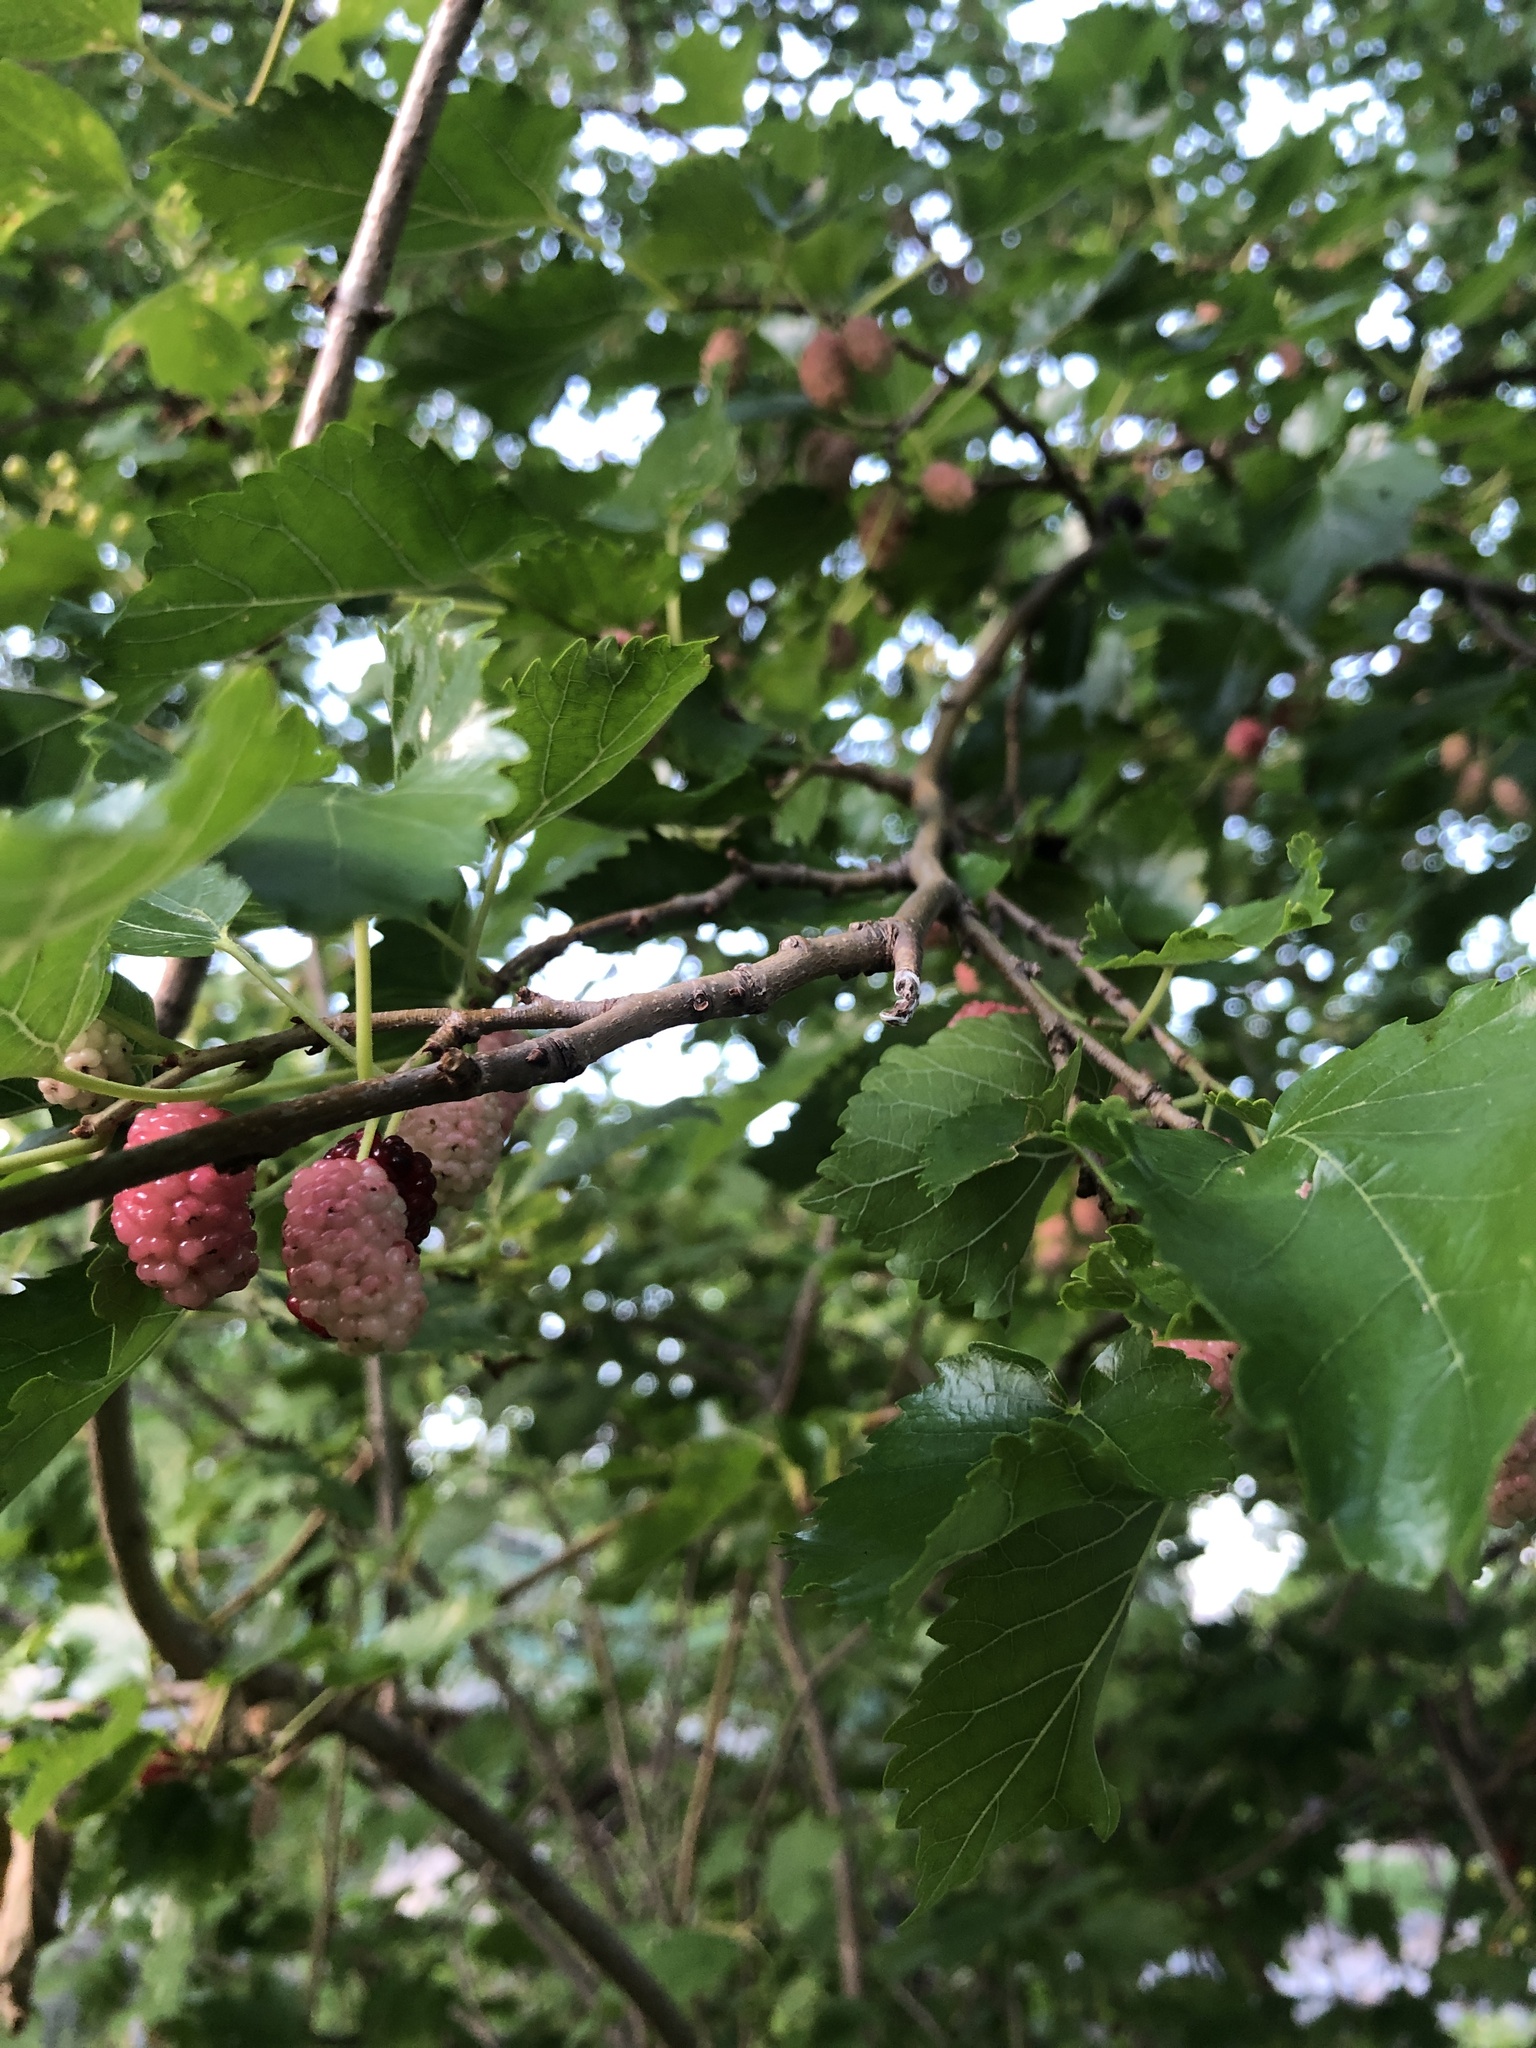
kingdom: Plantae
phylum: Tracheophyta
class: Magnoliopsida
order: Rosales
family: Moraceae
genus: Morus
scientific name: Morus alba
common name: White mulberry
